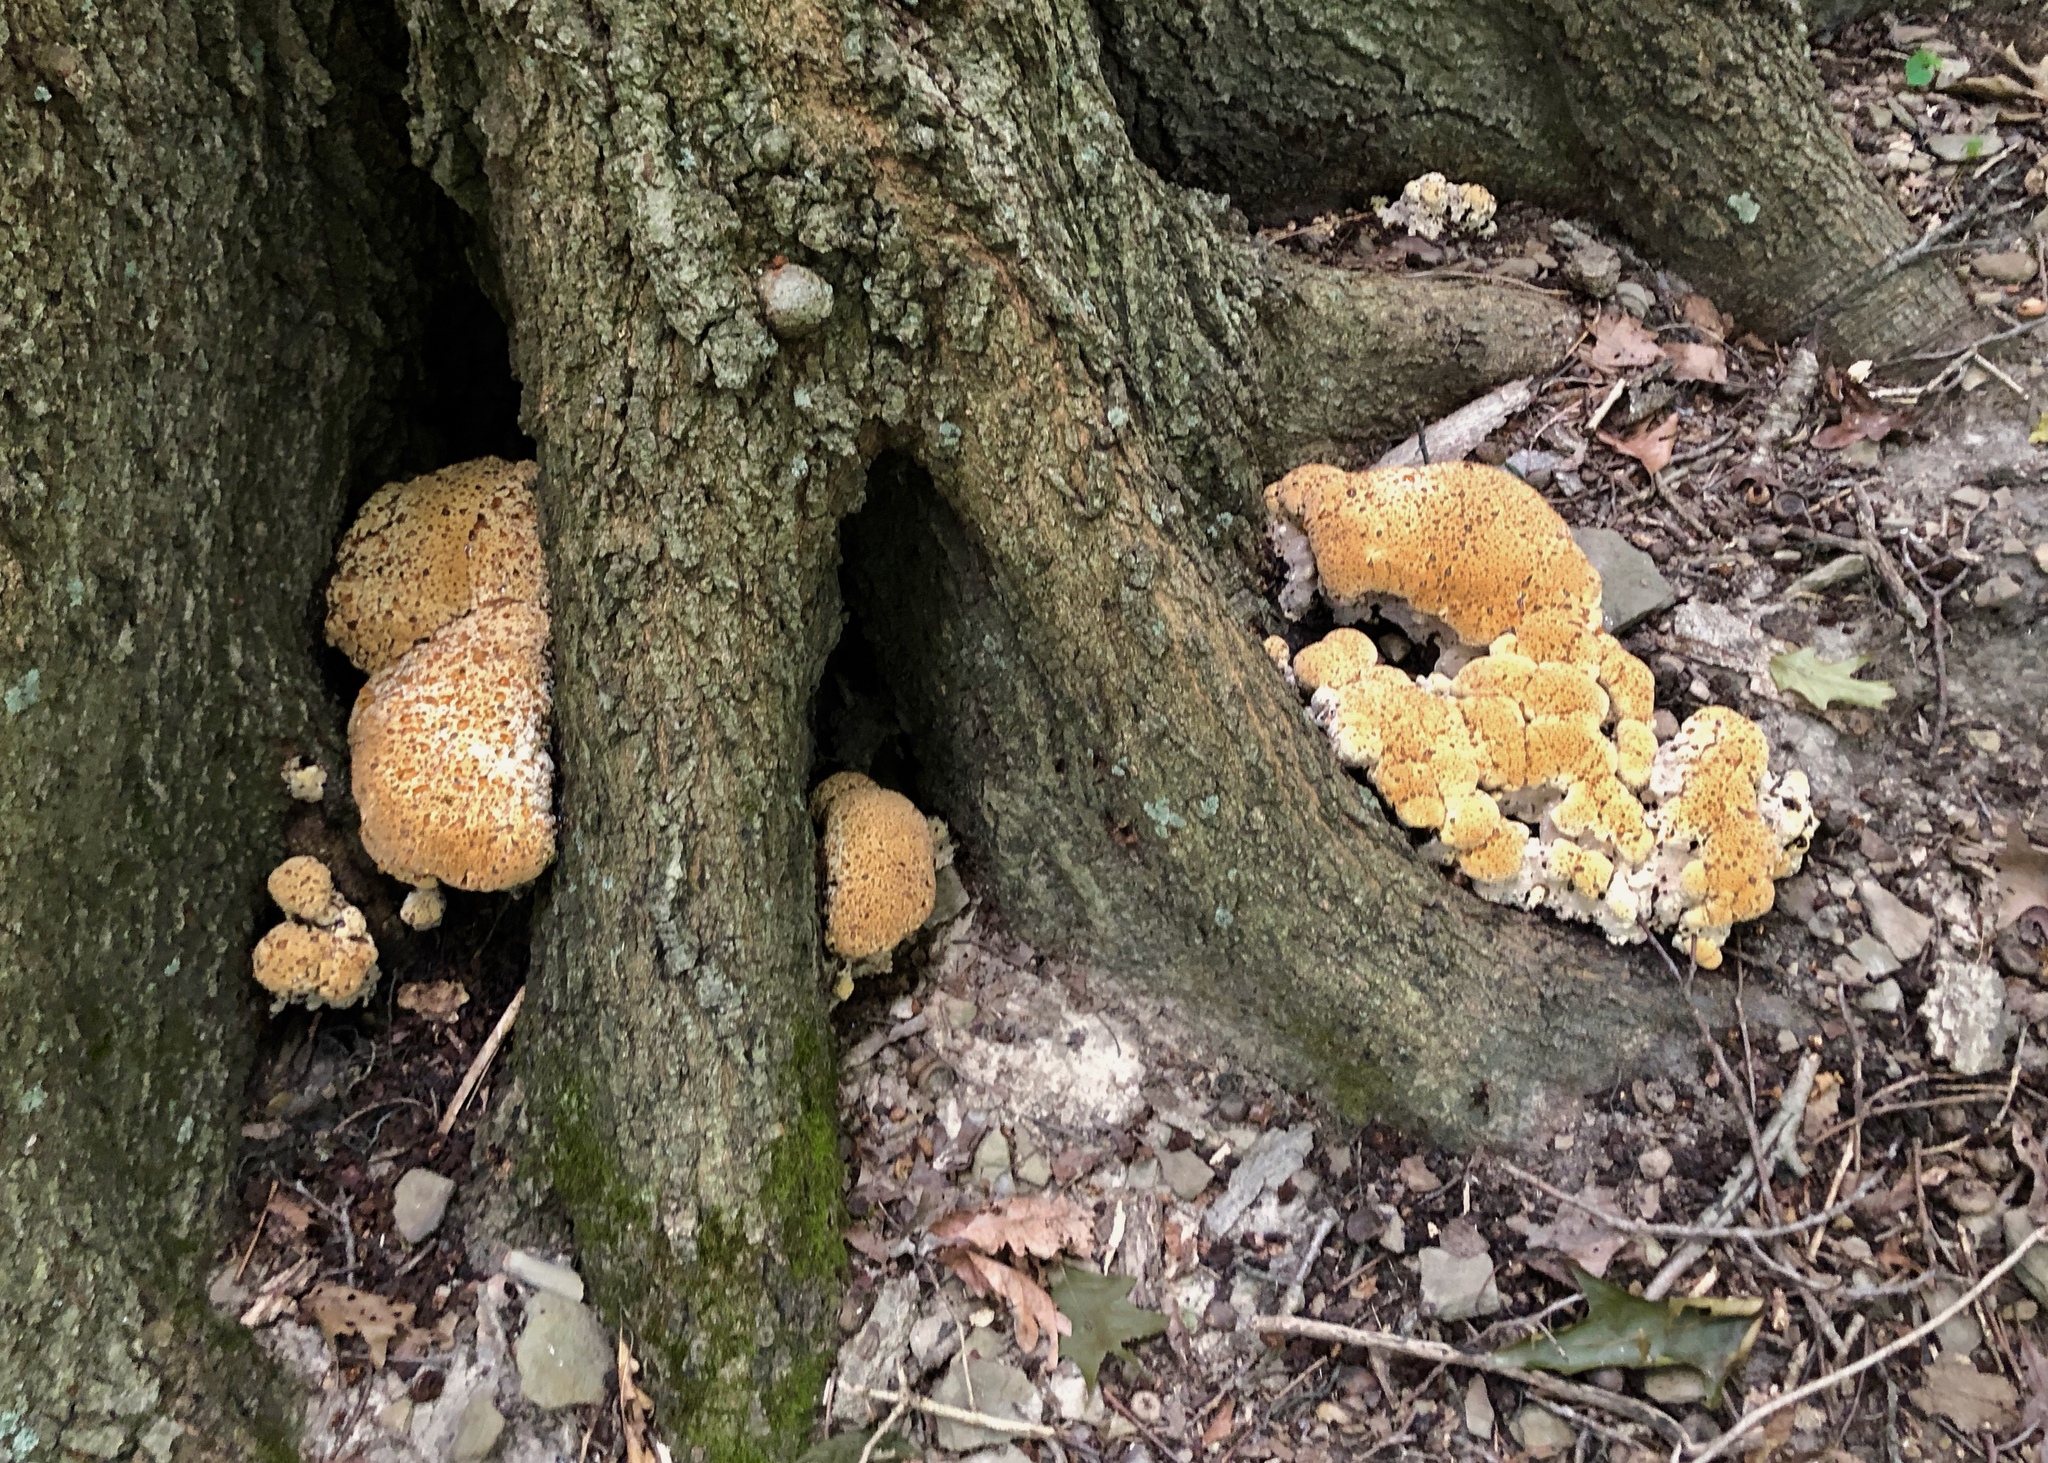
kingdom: Fungi
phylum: Basidiomycota
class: Agaricomycetes
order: Hymenochaetales
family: Hymenochaetaceae
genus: Pseudoinonotus
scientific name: Pseudoinonotus dryadeus
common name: Oak bracket
